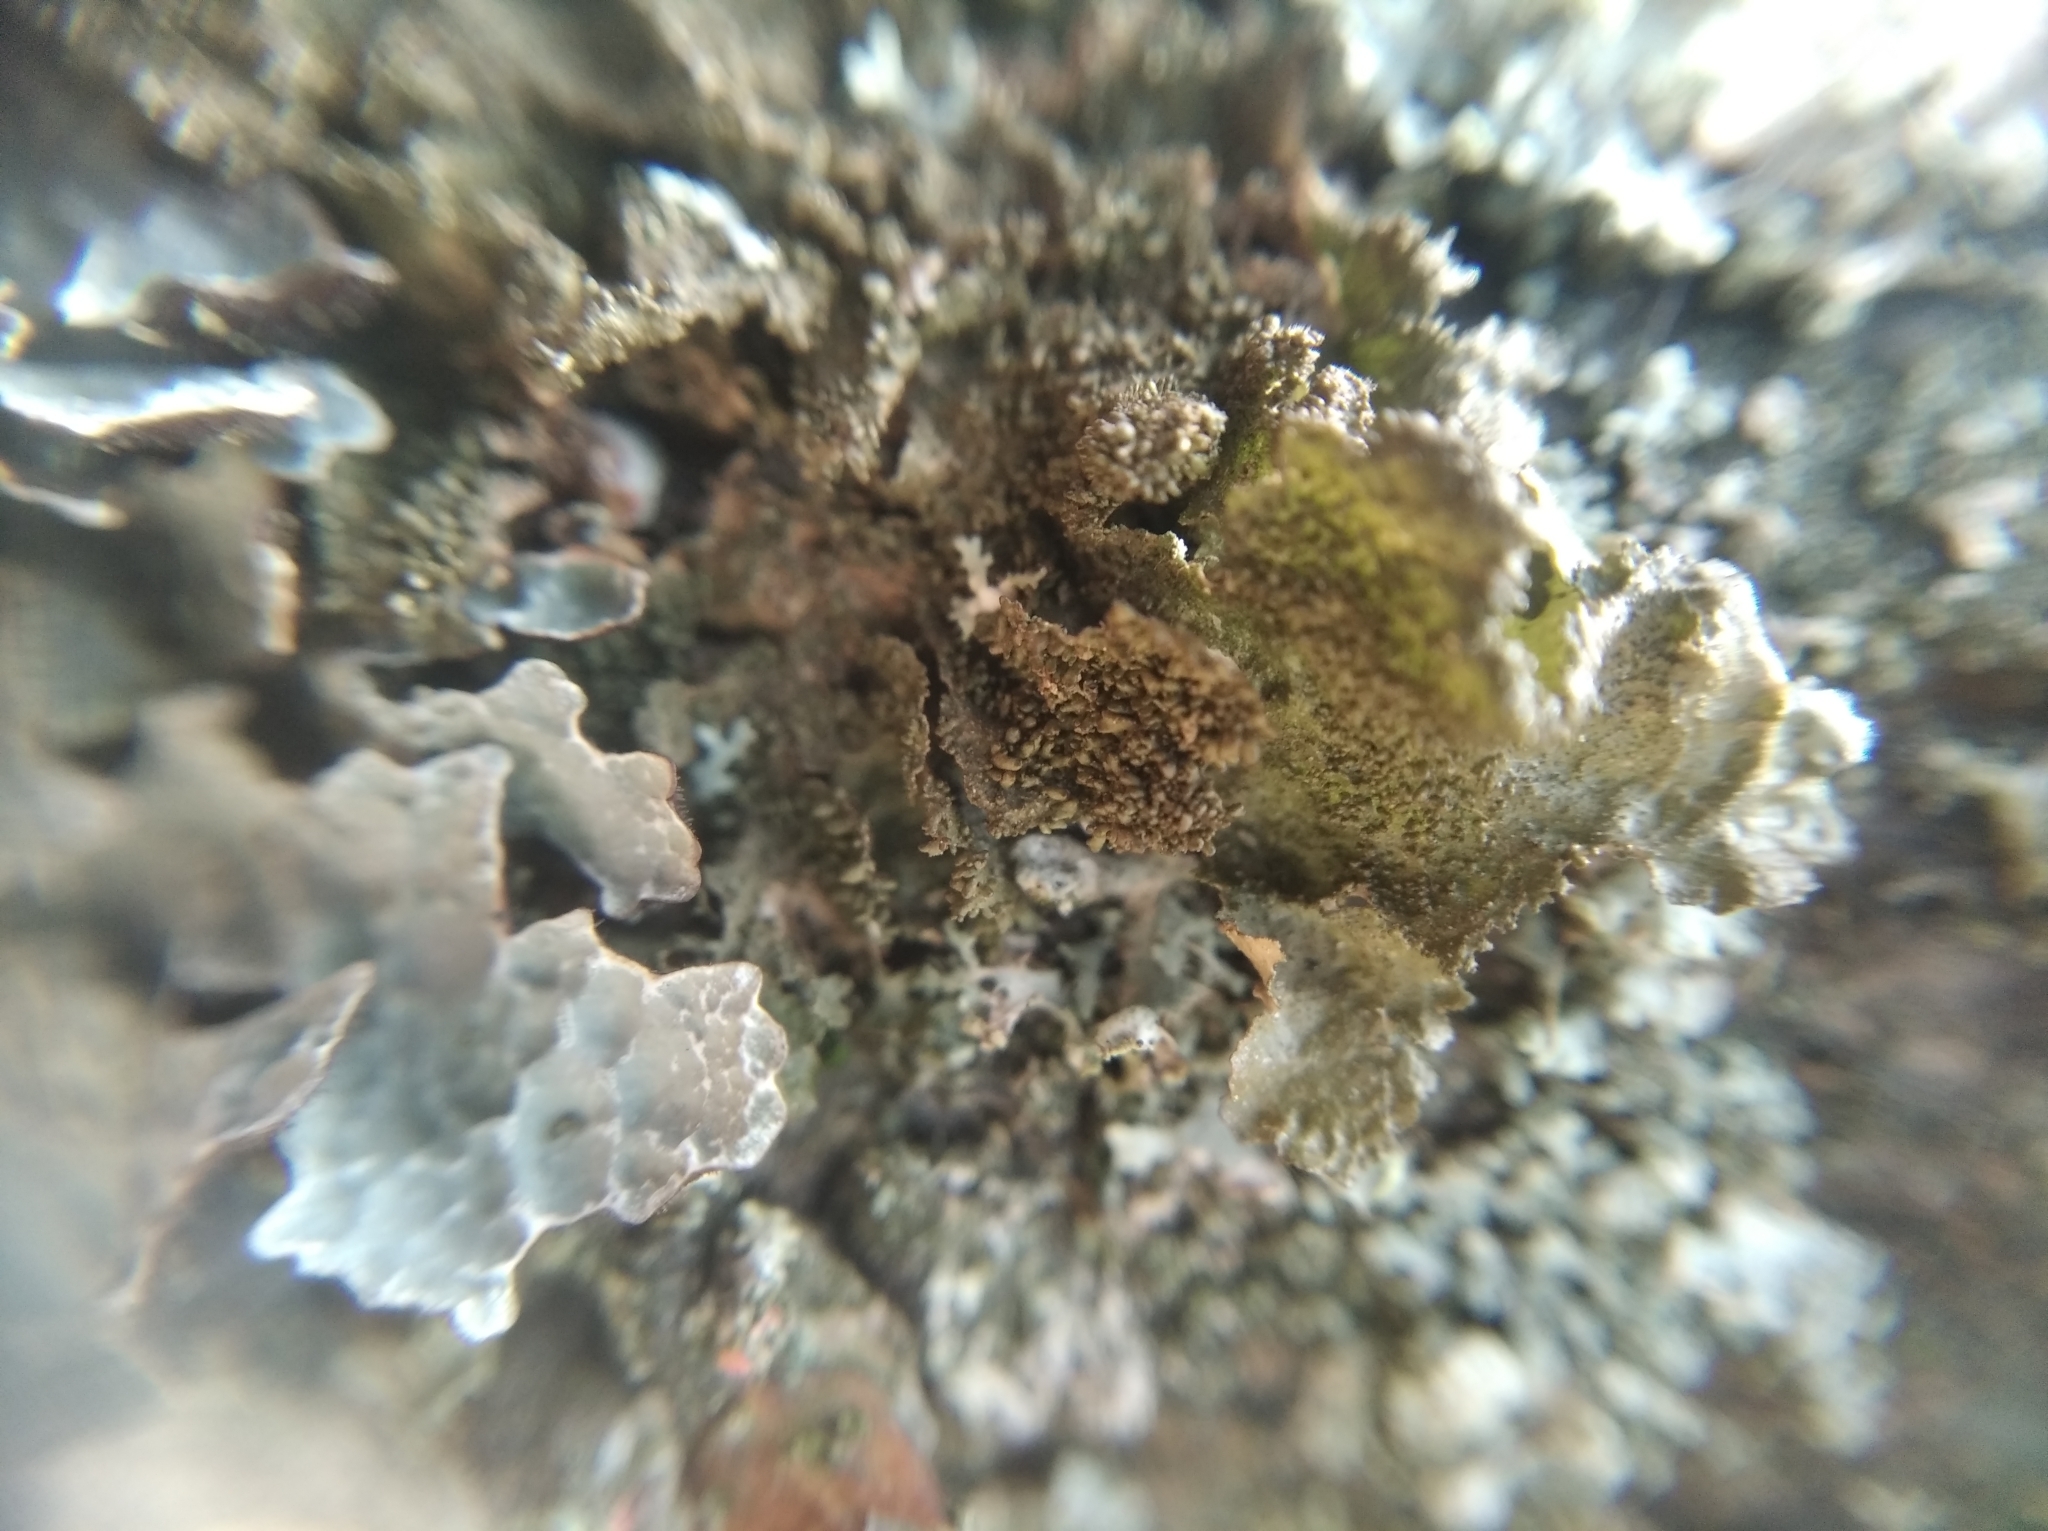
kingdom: Fungi
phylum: Ascomycota
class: Lecanoromycetes
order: Lecanorales
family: Parmeliaceae
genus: Melanohalea
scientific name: Melanohalea exasperatula
